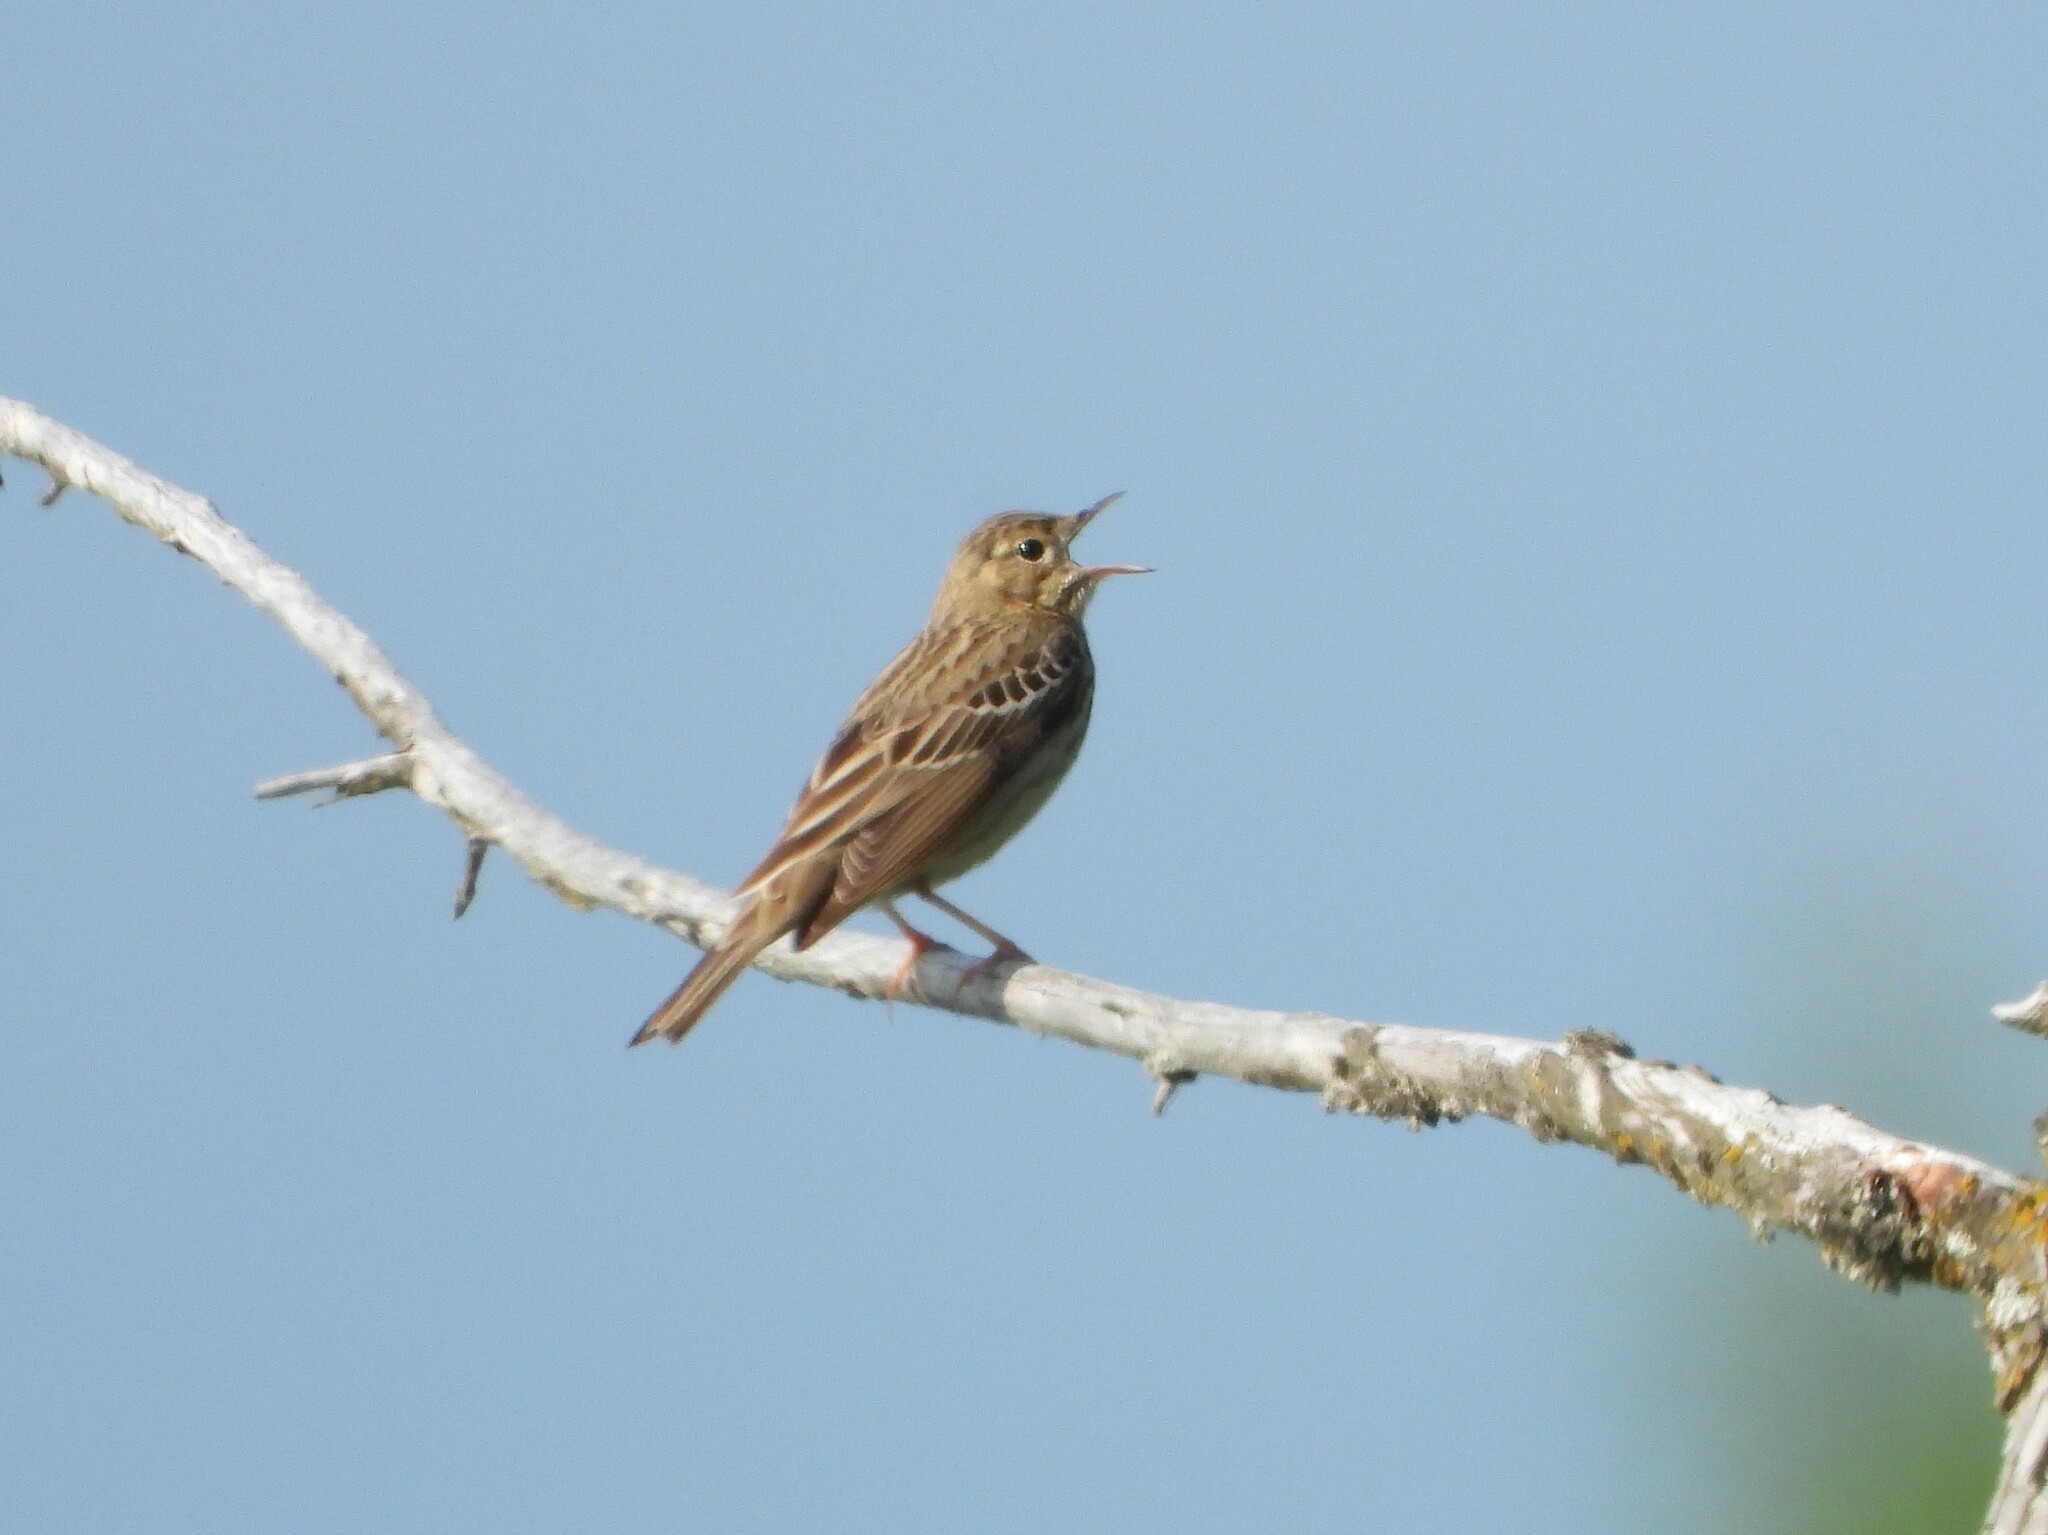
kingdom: Animalia
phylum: Chordata
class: Aves
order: Passeriformes
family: Motacillidae
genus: Anthus
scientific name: Anthus trivialis
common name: Tree pipit
